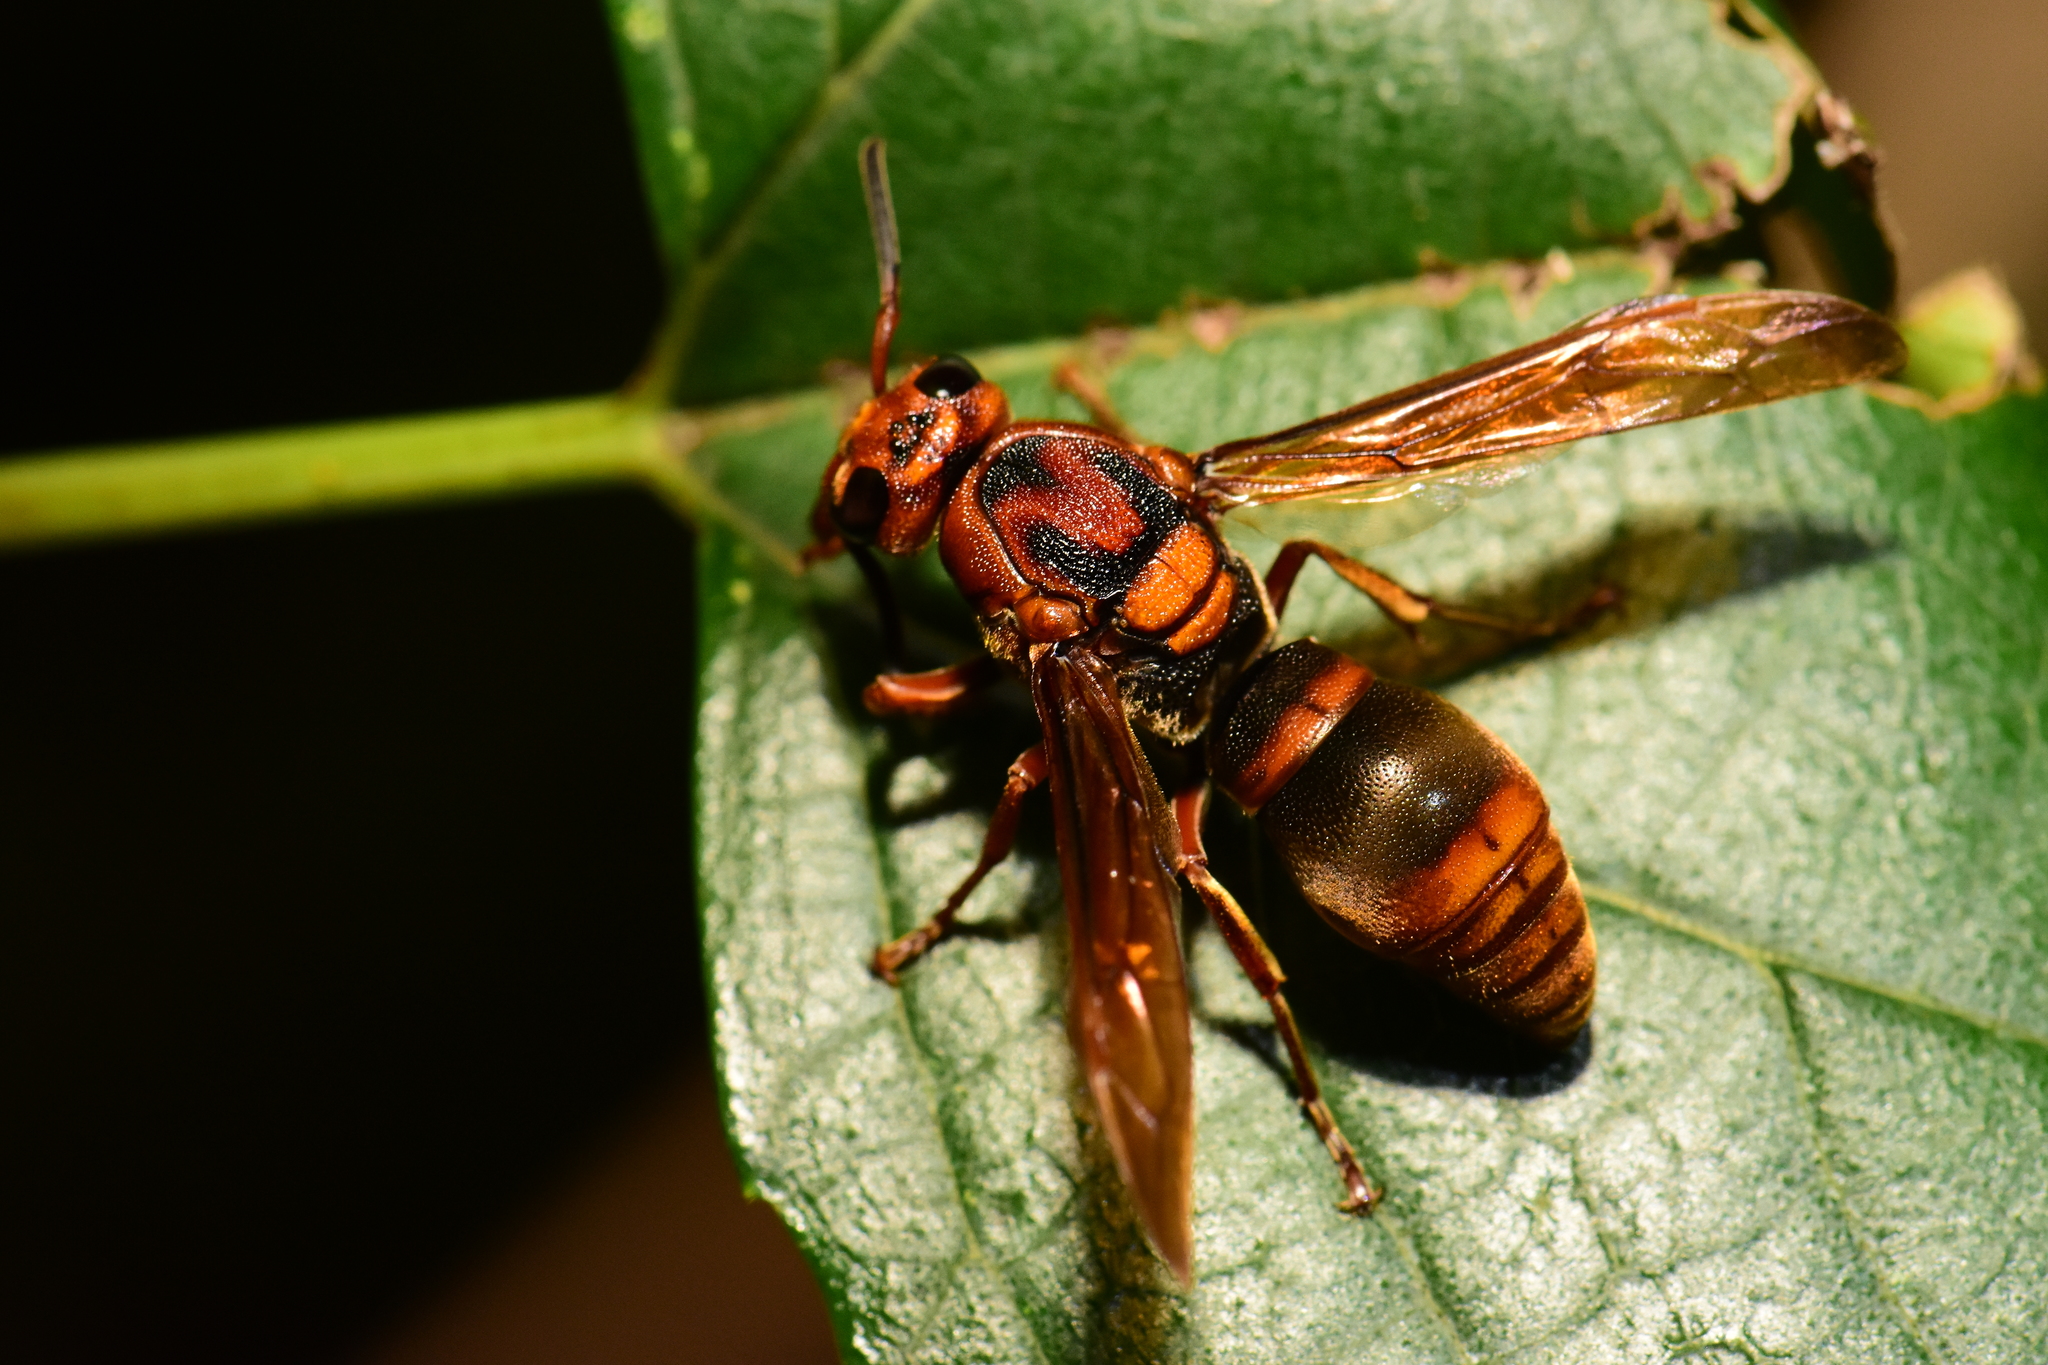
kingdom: Animalia
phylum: Arthropoda
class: Insecta
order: Hymenoptera
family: Eumenidae
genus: Orancistrocerus
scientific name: Orancistrocerus drewseni
